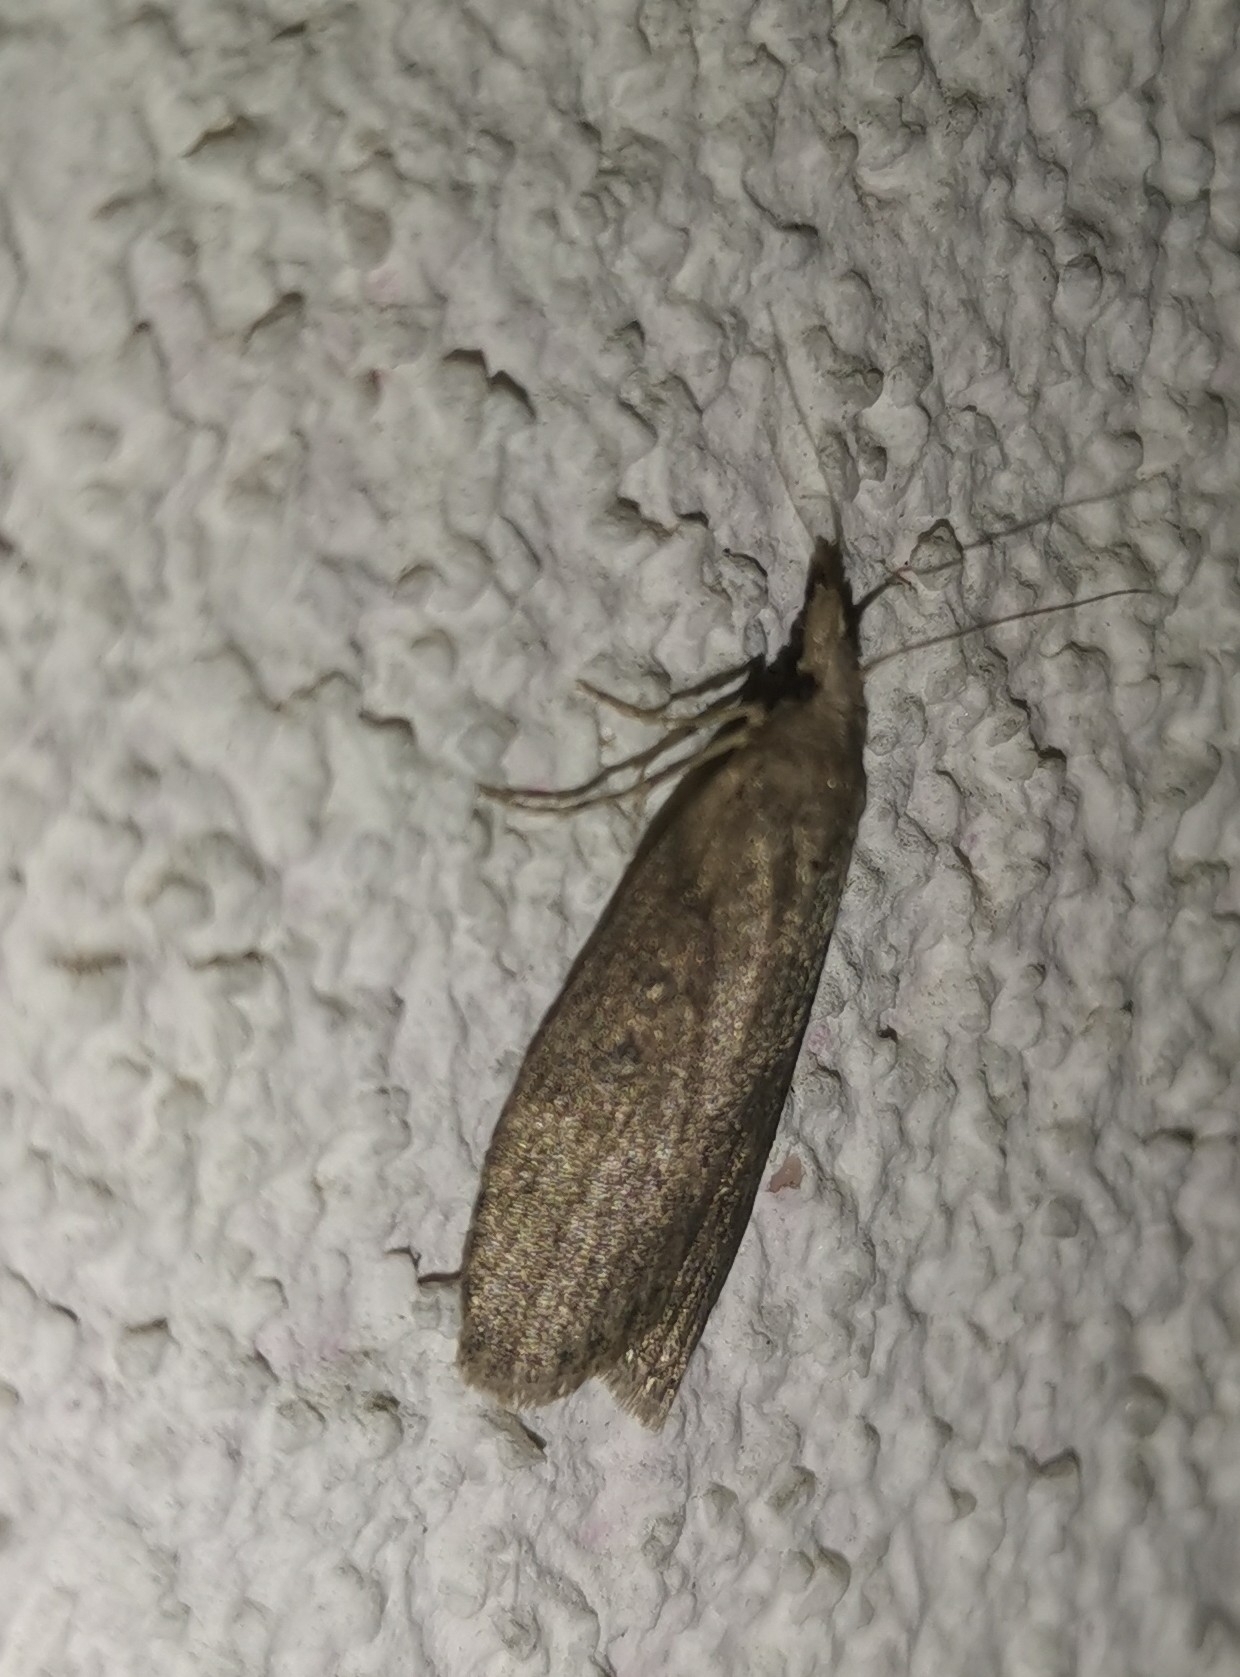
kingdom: Animalia
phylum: Arthropoda
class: Insecta
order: Lepidoptera
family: Pyralidae
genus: Lamoria
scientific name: Lamoria anella
